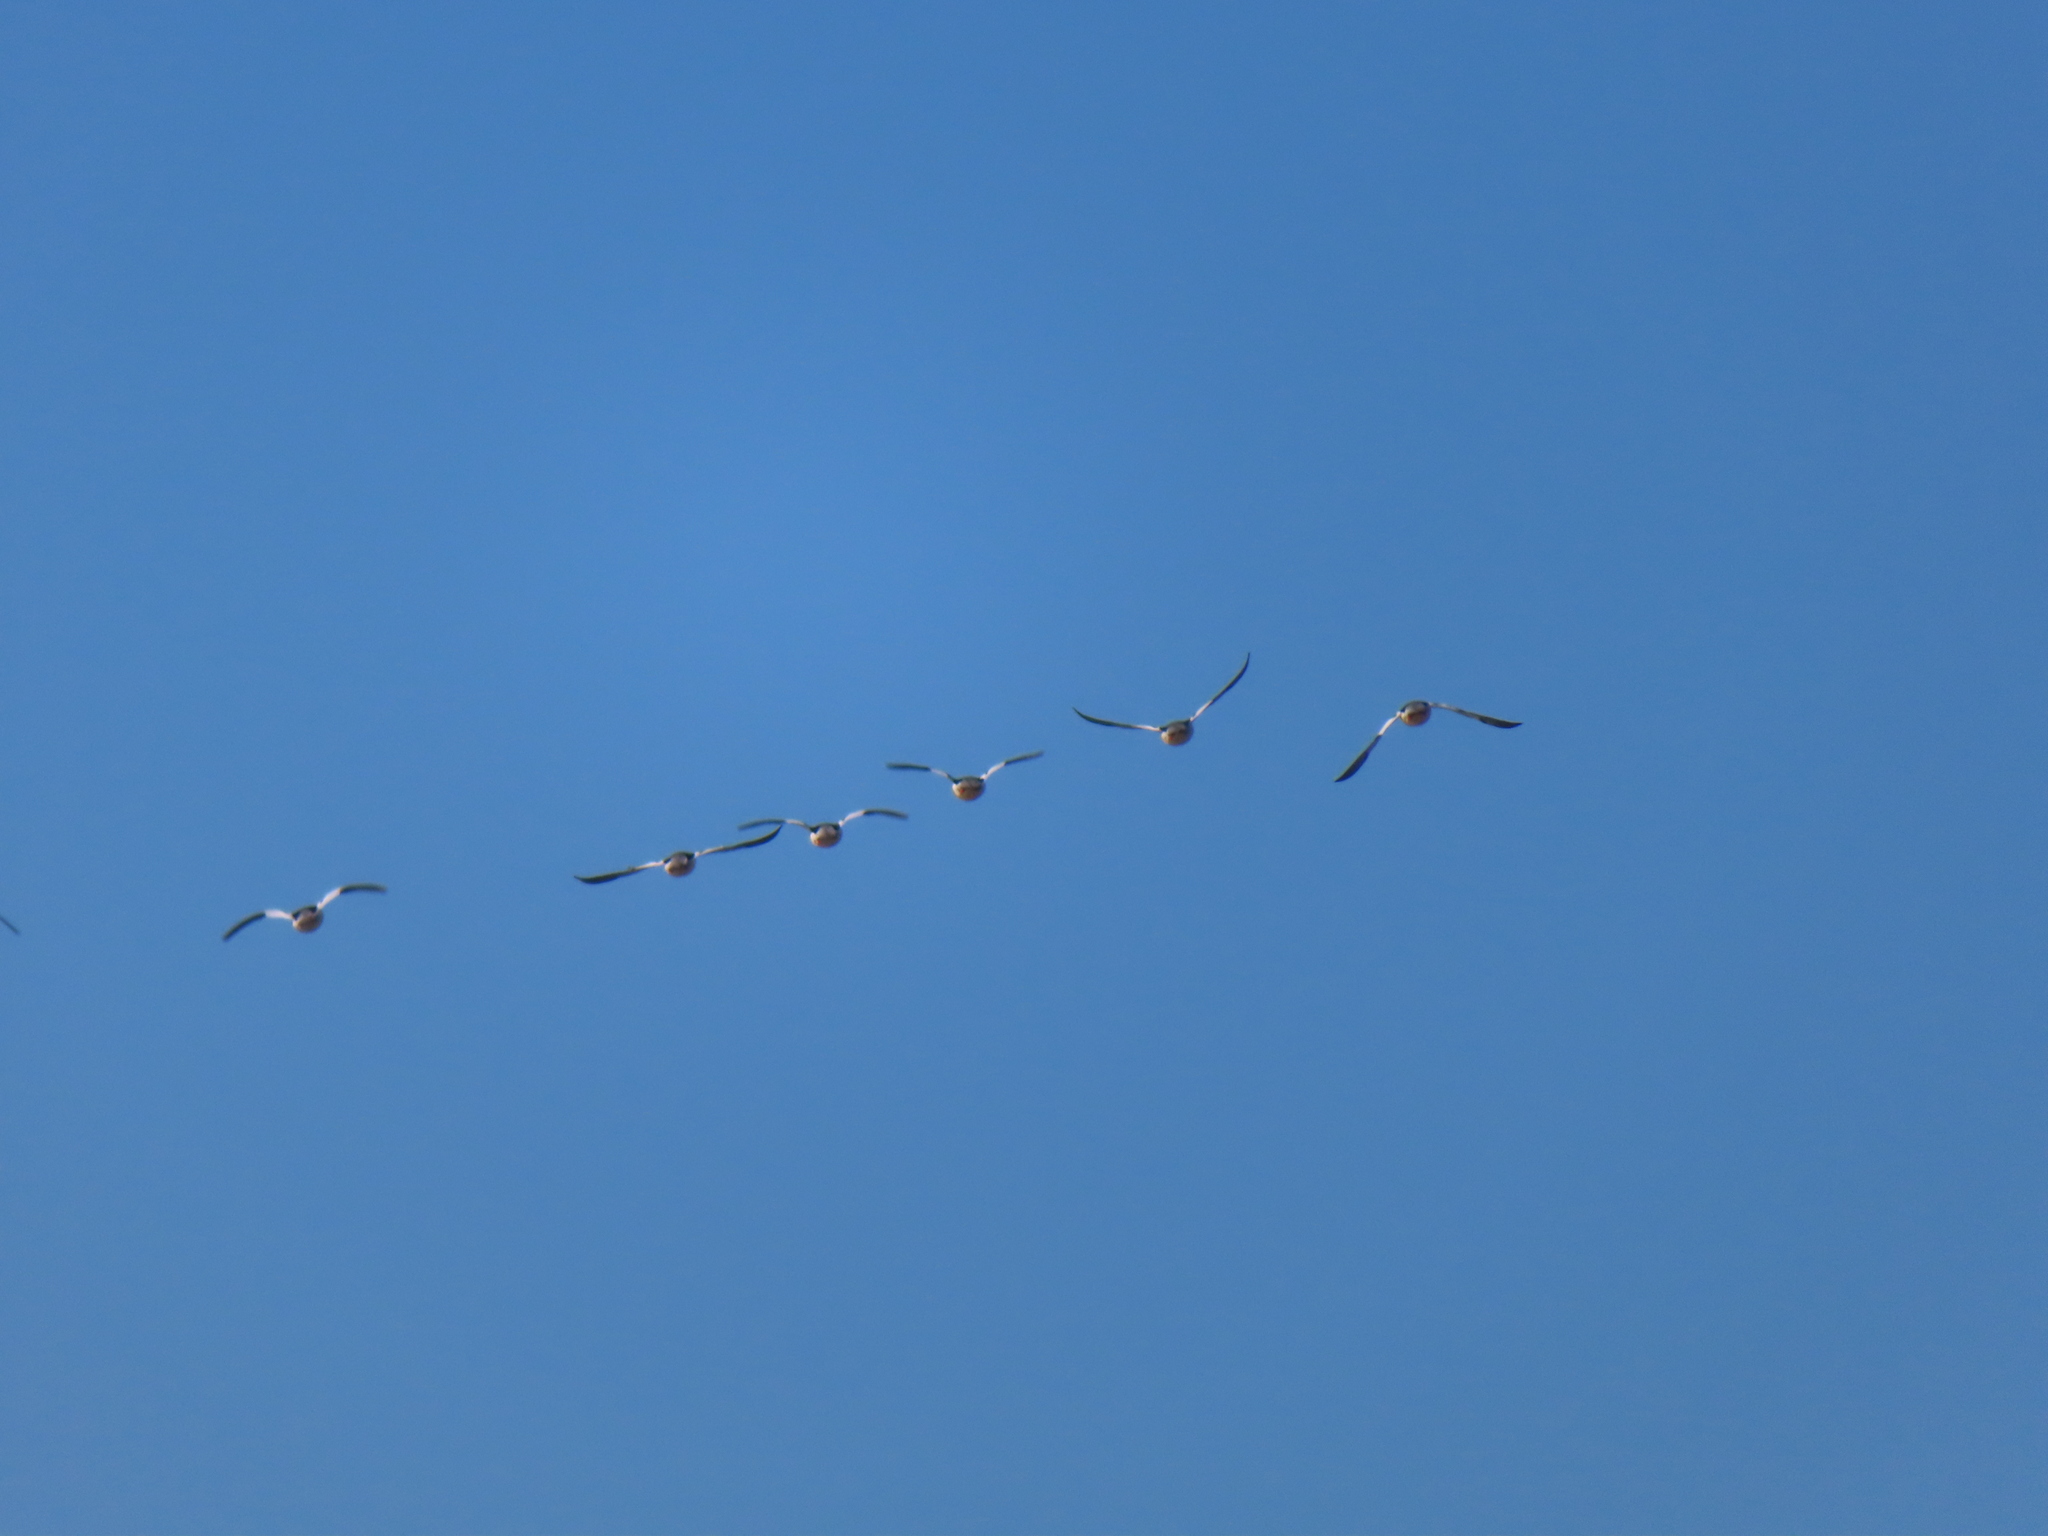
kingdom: Animalia
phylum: Chordata
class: Aves
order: Anseriformes
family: Anatidae
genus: Mergus
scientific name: Mergus merganser
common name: Common merganser
